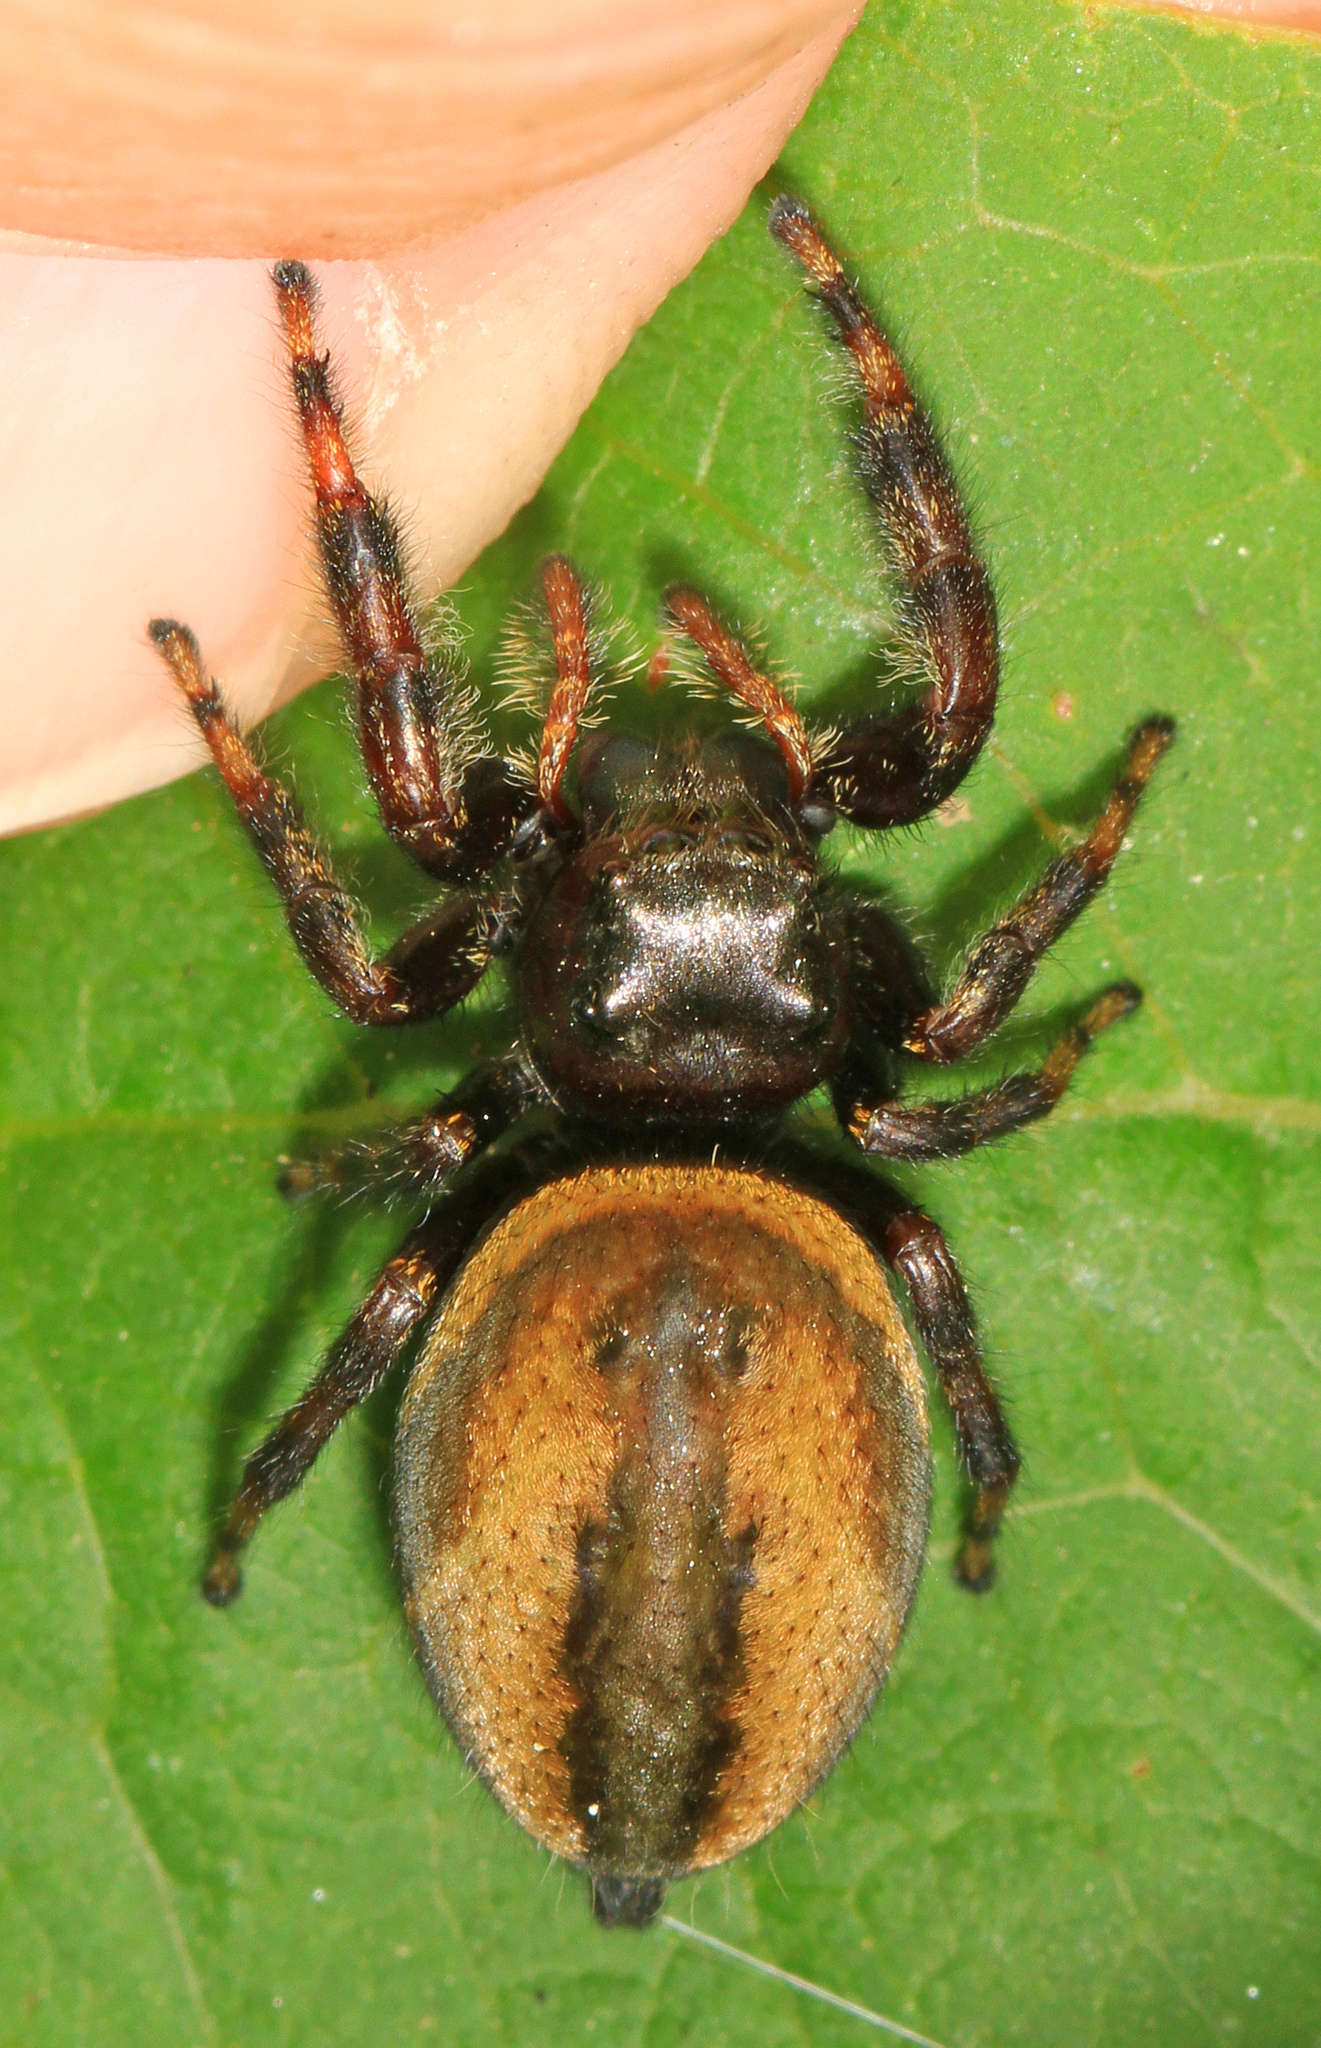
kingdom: Animalia
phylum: Arthropoda
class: Arachnida
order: Araneae
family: Salticidae
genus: Phidippus
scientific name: Phidippus clarus
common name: Brilliant jumping spider
